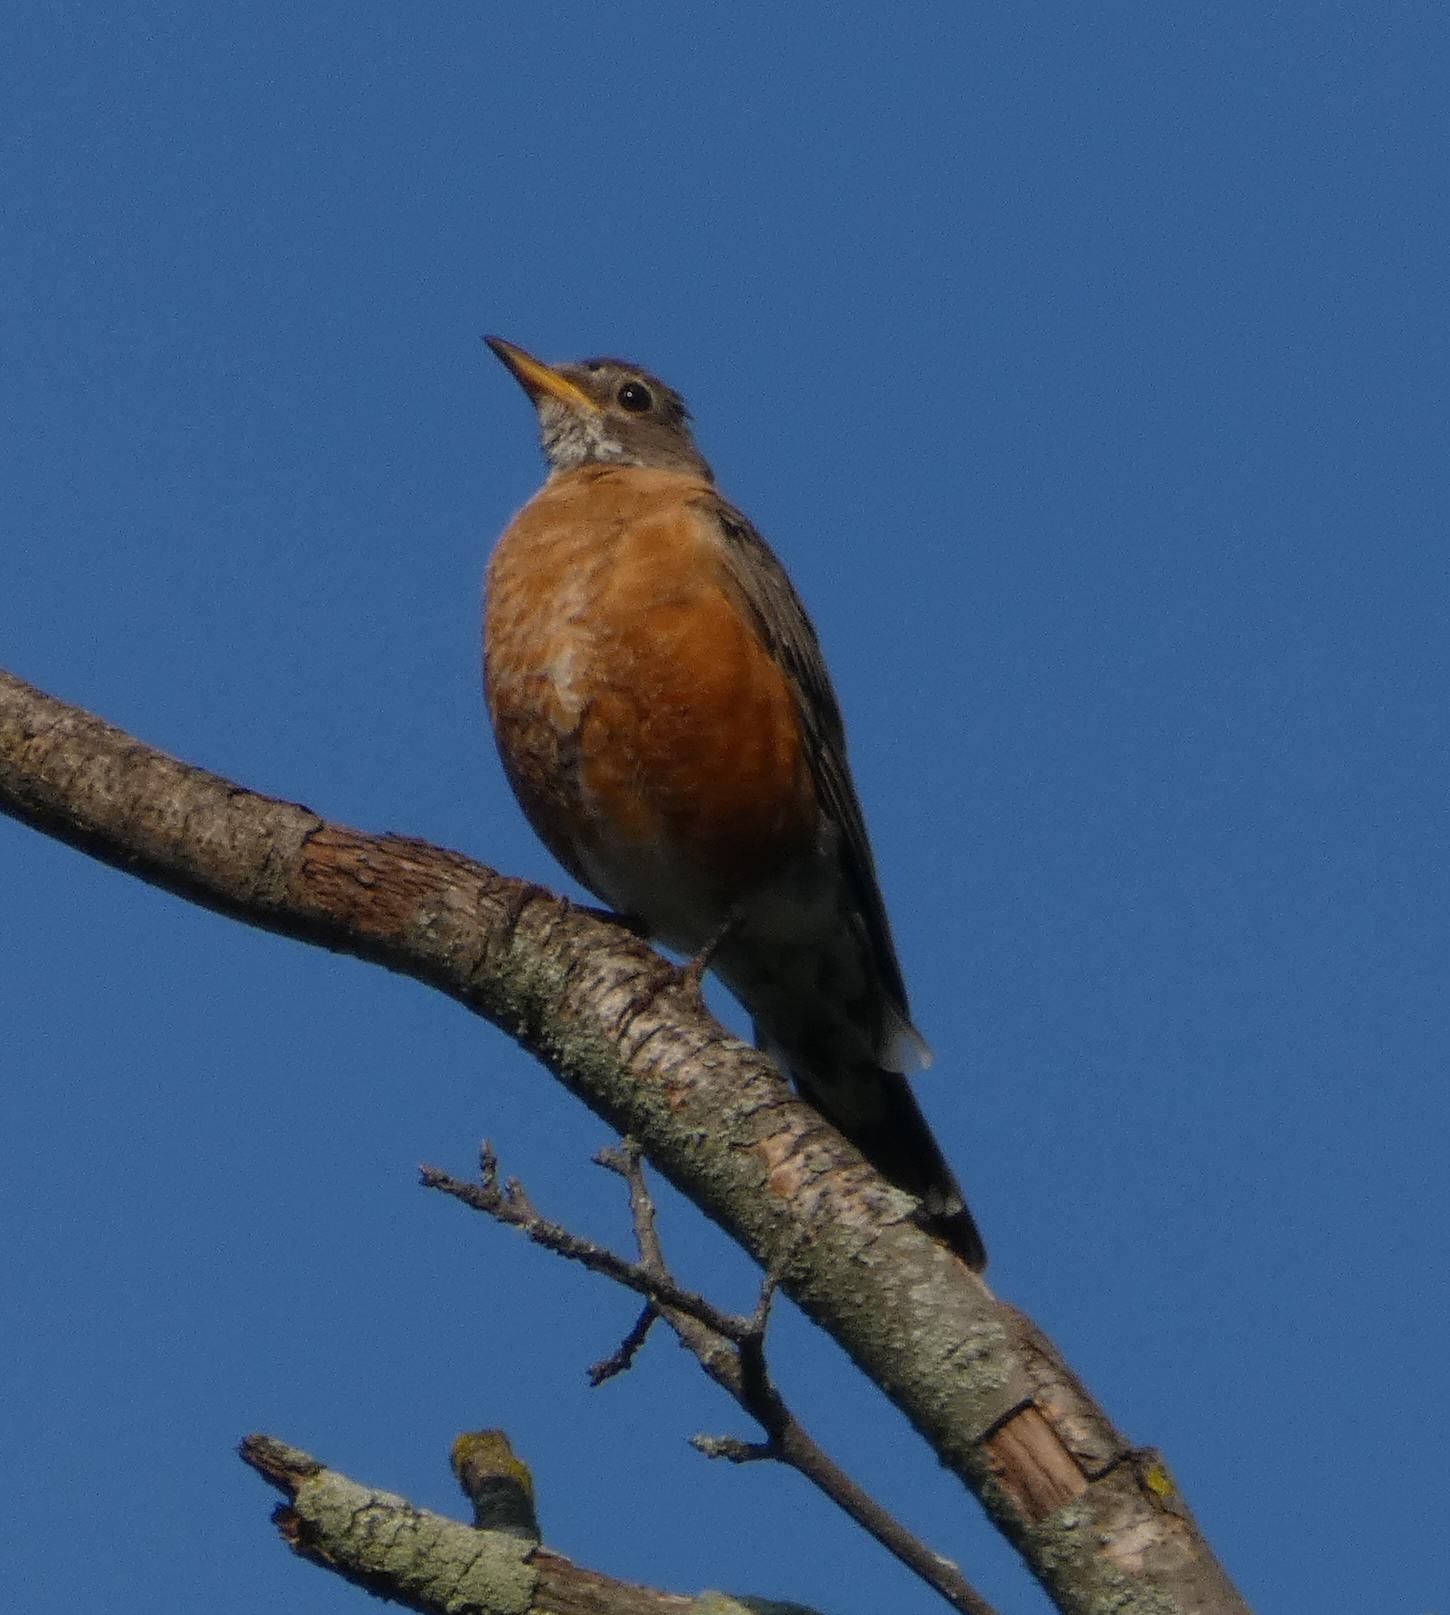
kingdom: Animalia
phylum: Chordata
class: Aves
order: Passeriformes
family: Turdidae
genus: Turdus
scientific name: Turdus migratorius
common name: American robin
